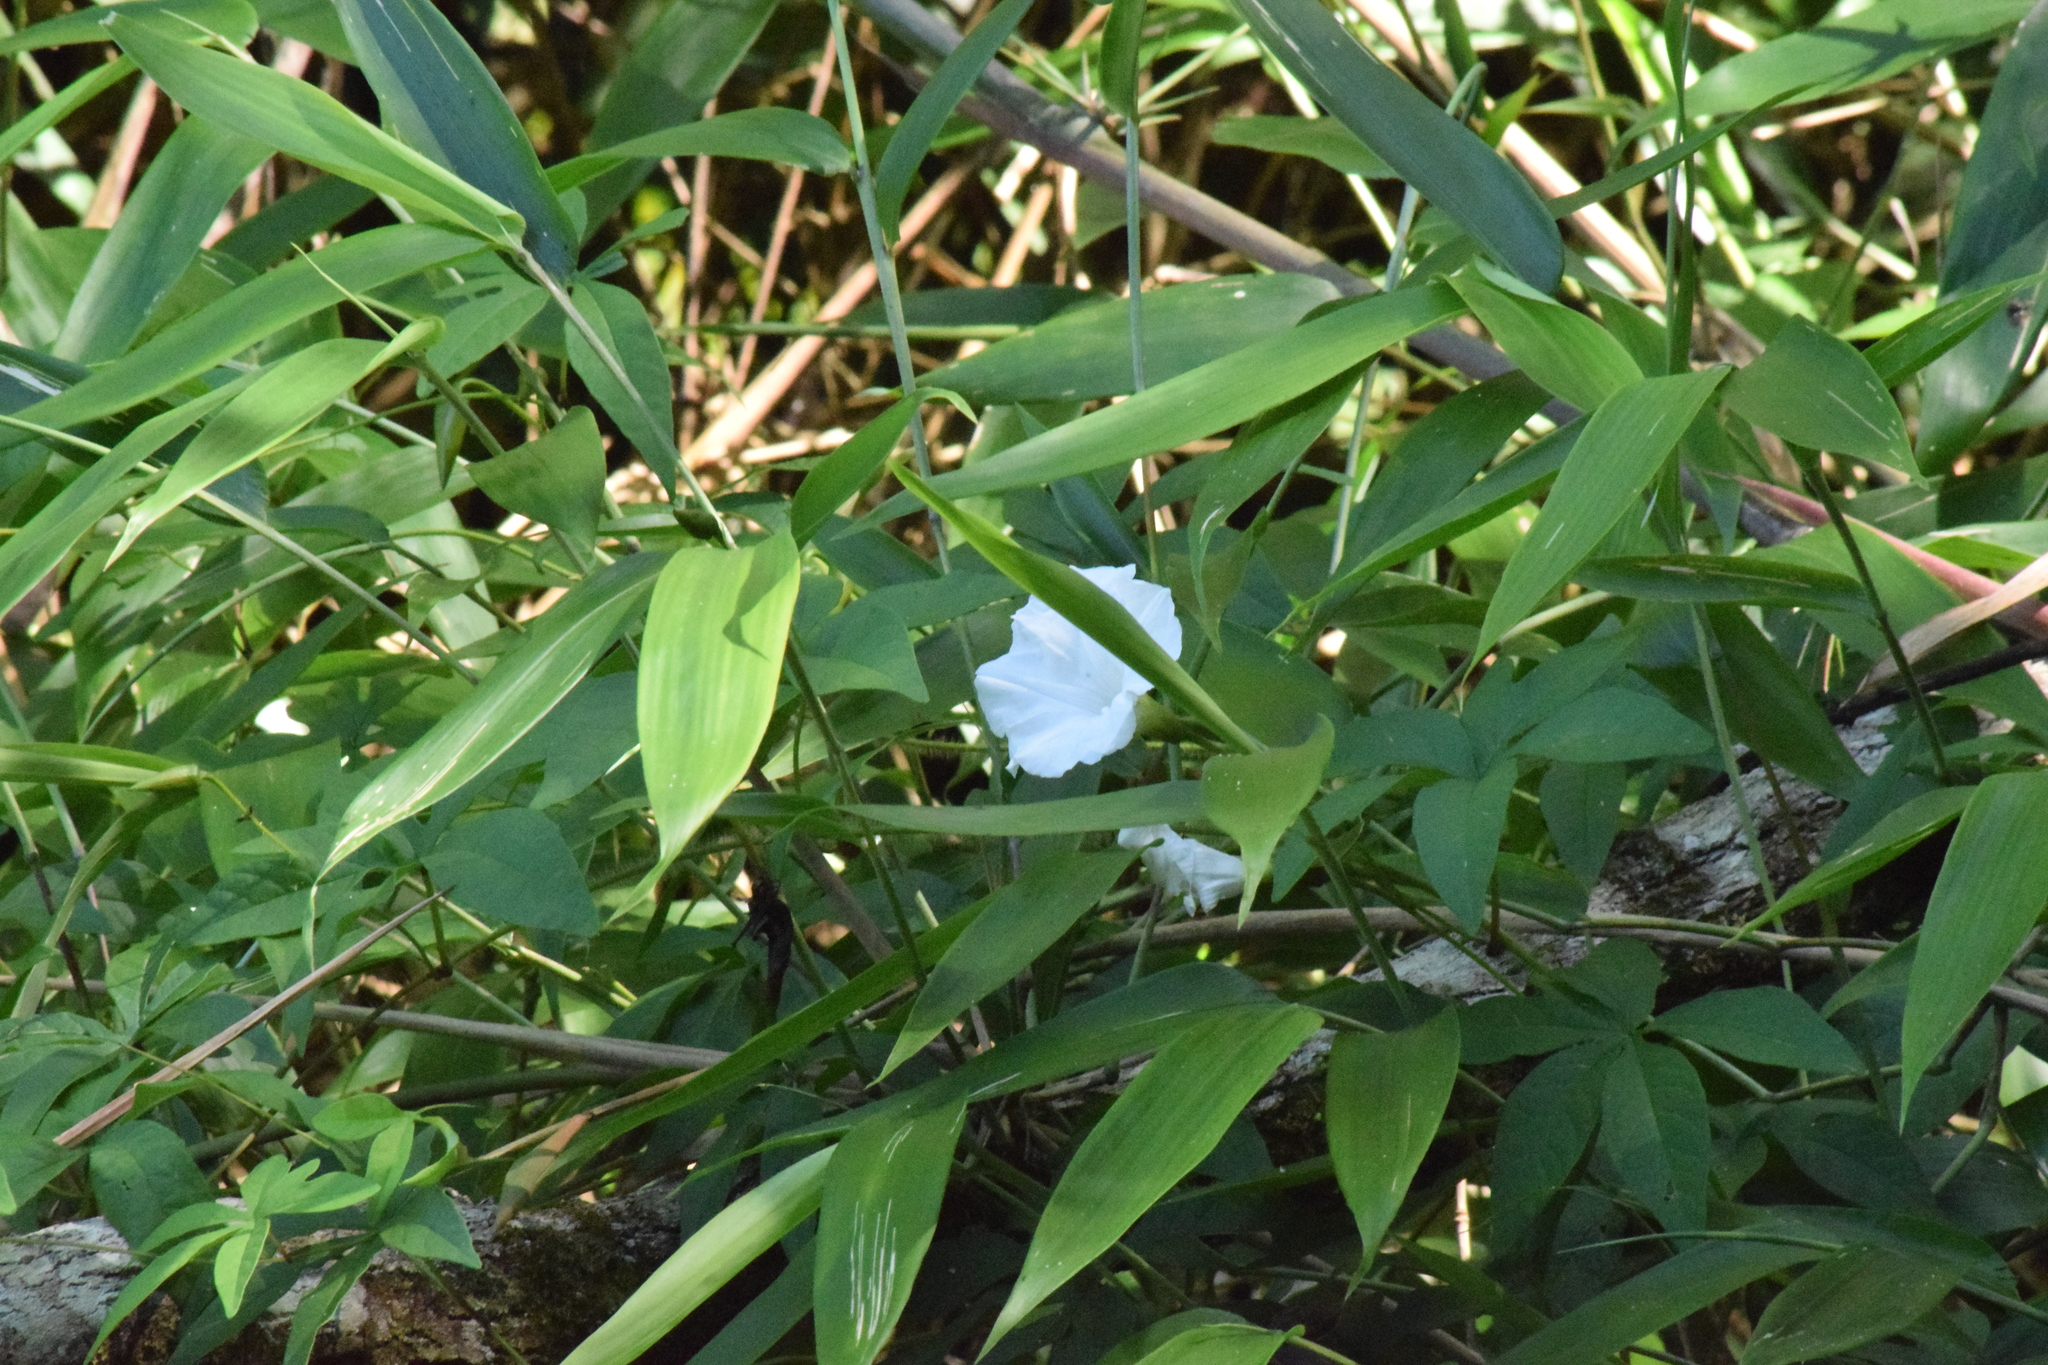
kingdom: Plantae
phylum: Tracheophyta
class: Magnoliopsida
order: Solanales
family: Convolvulaceae
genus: Distimake
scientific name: Distimake cissoides
